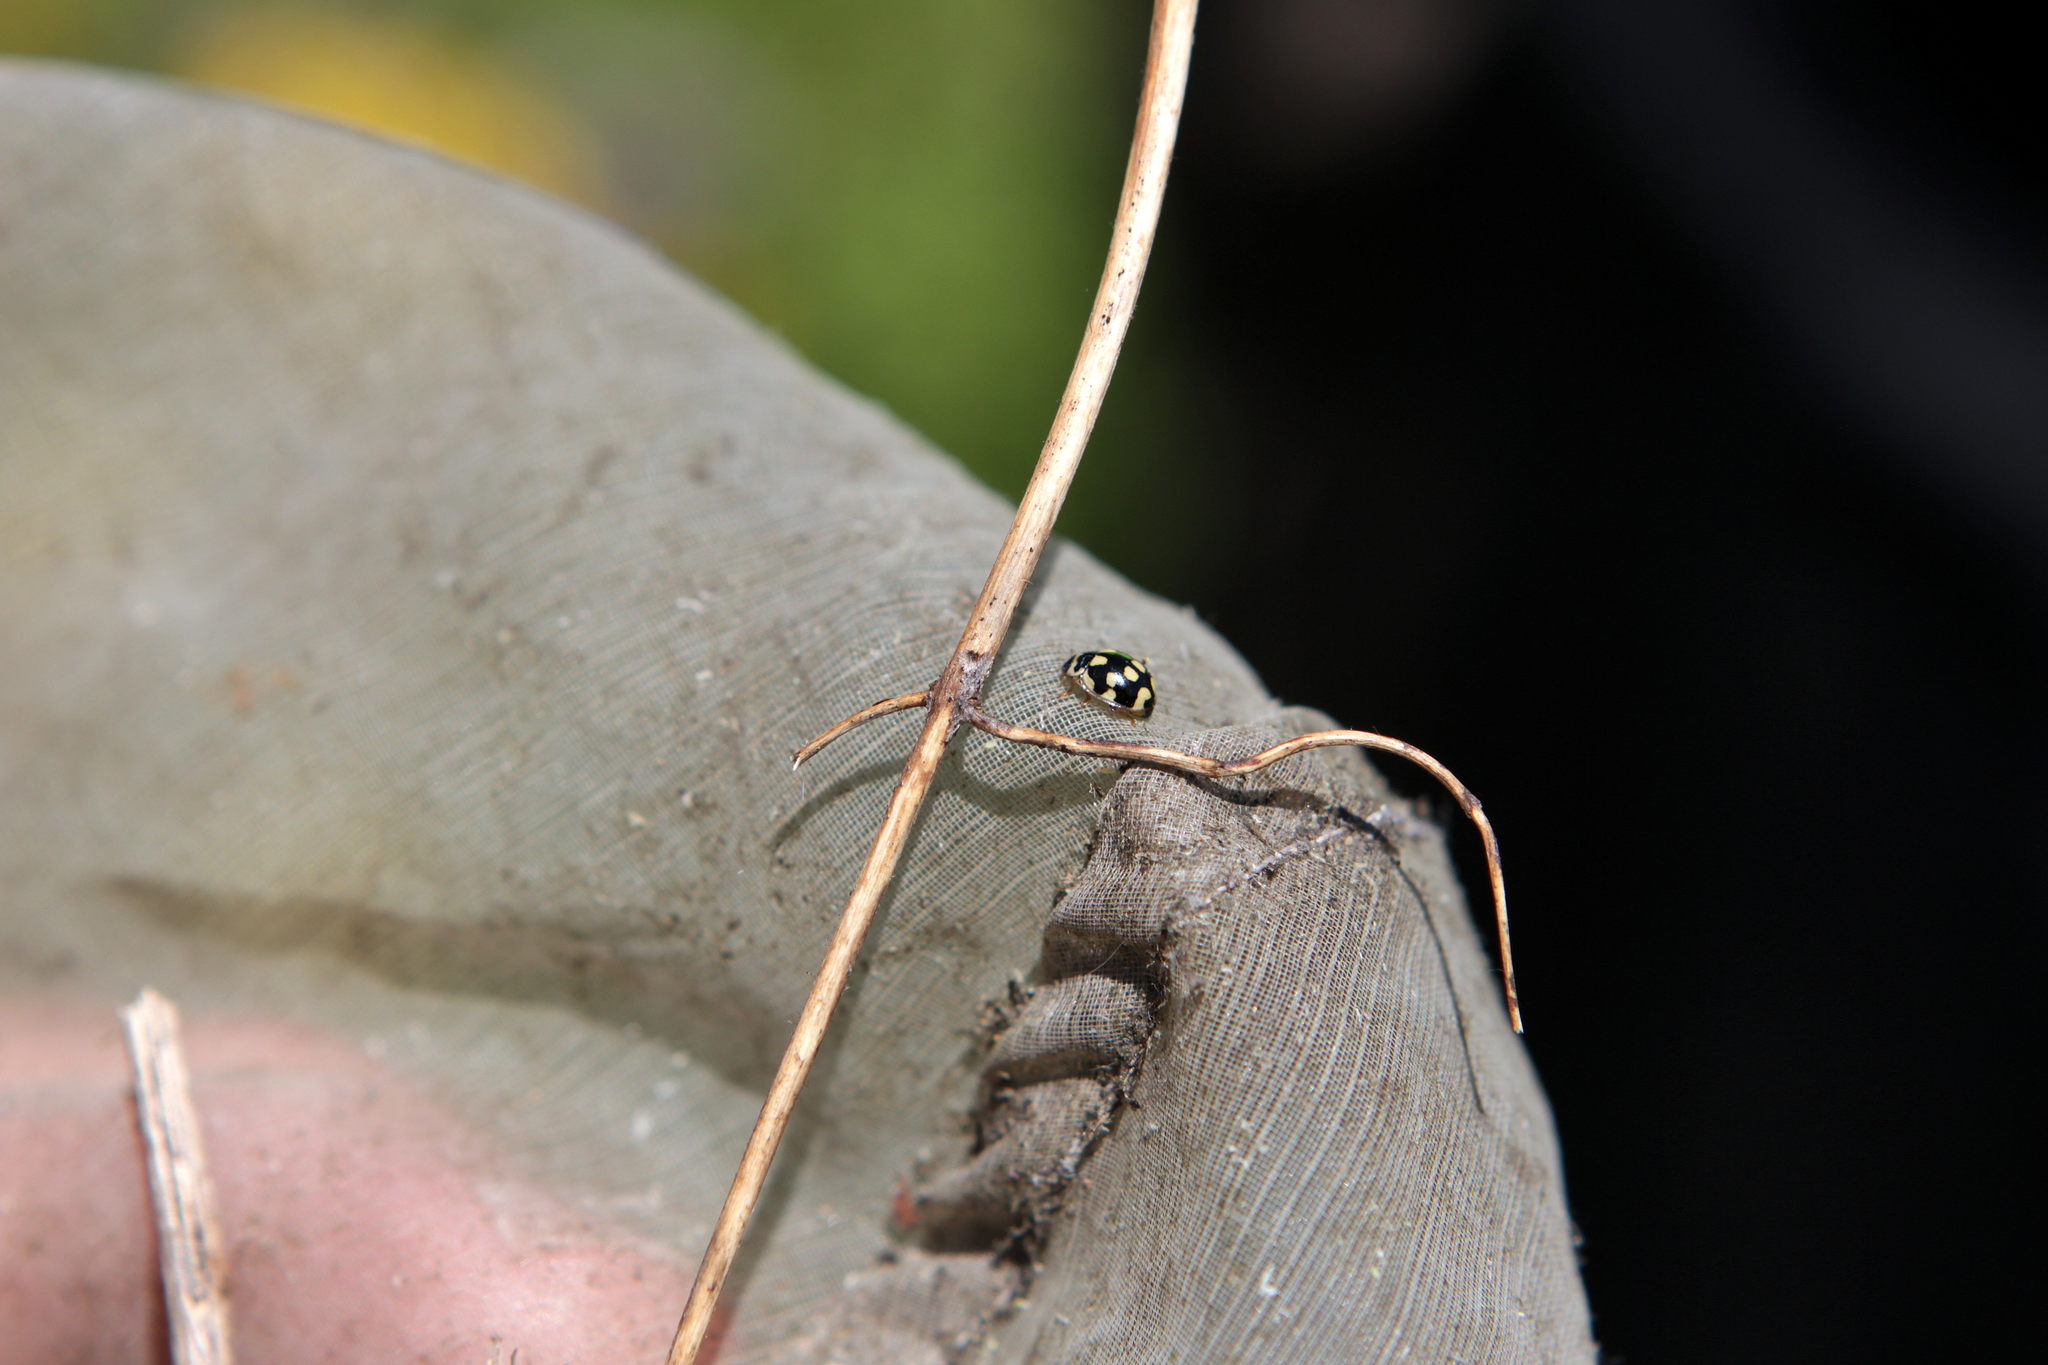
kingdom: Animalia
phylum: Arthropoda
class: Insecta
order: Coleoptera
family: Coccinellidae
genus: Propylaea
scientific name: Propylaea quatuordecimpunctata
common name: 14-spotted ladybird beetle
